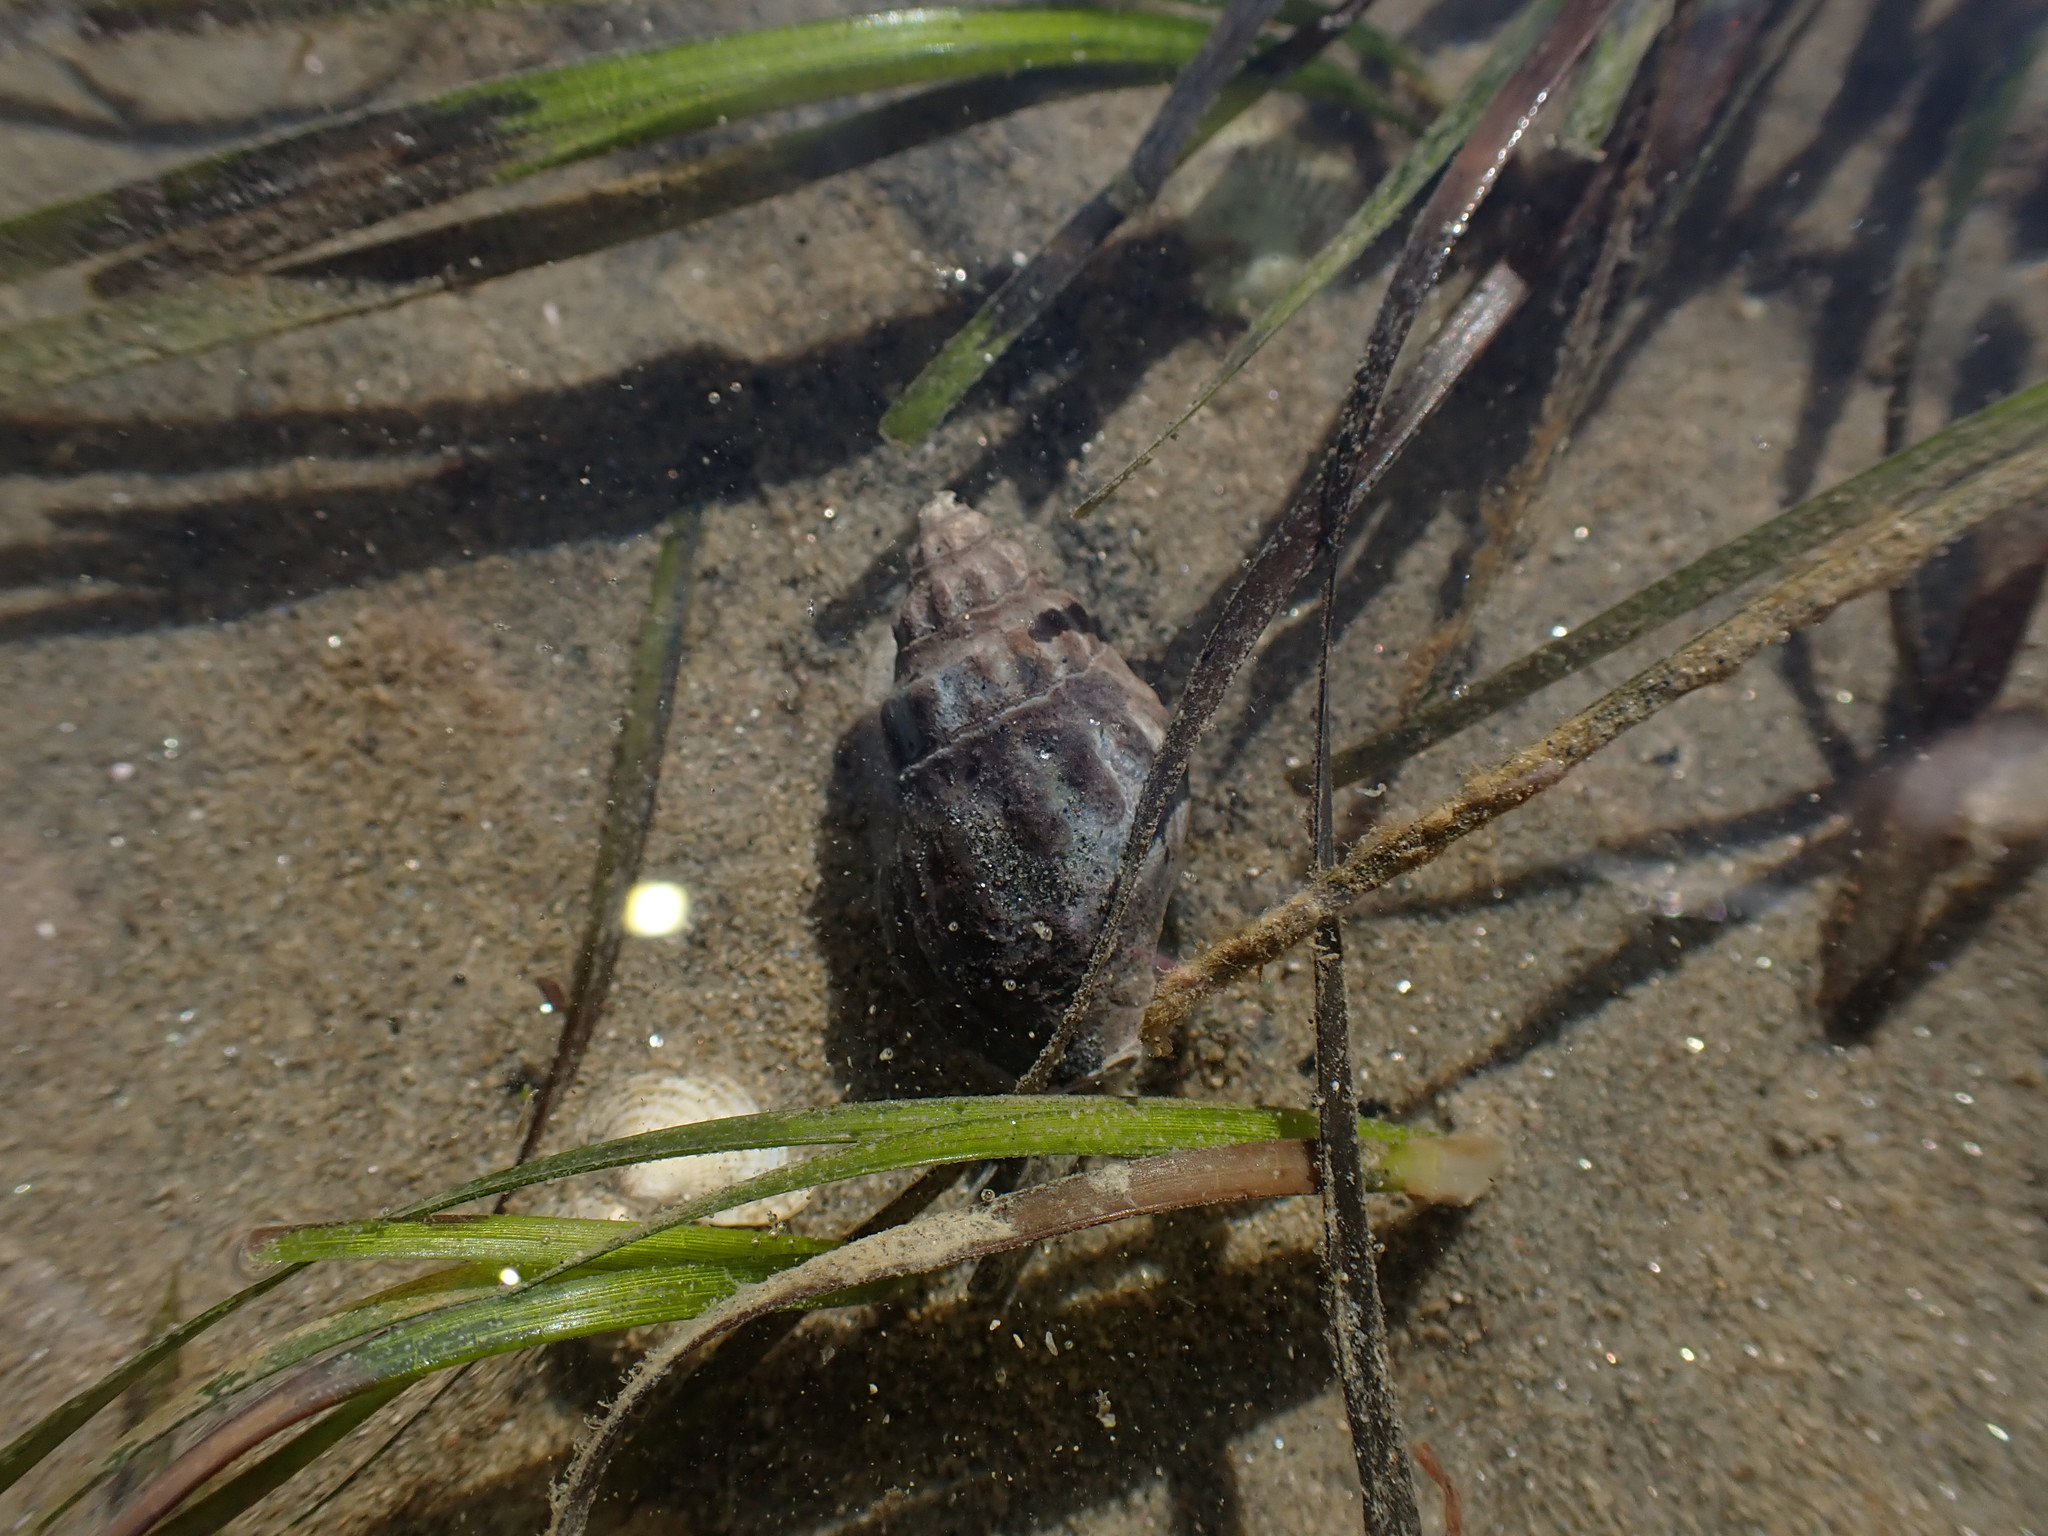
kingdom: Animalia
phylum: Mollusca
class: Gastropoda
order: Neogastropoda
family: Cominellidae
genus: Cominella
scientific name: Cominella glandiformis
